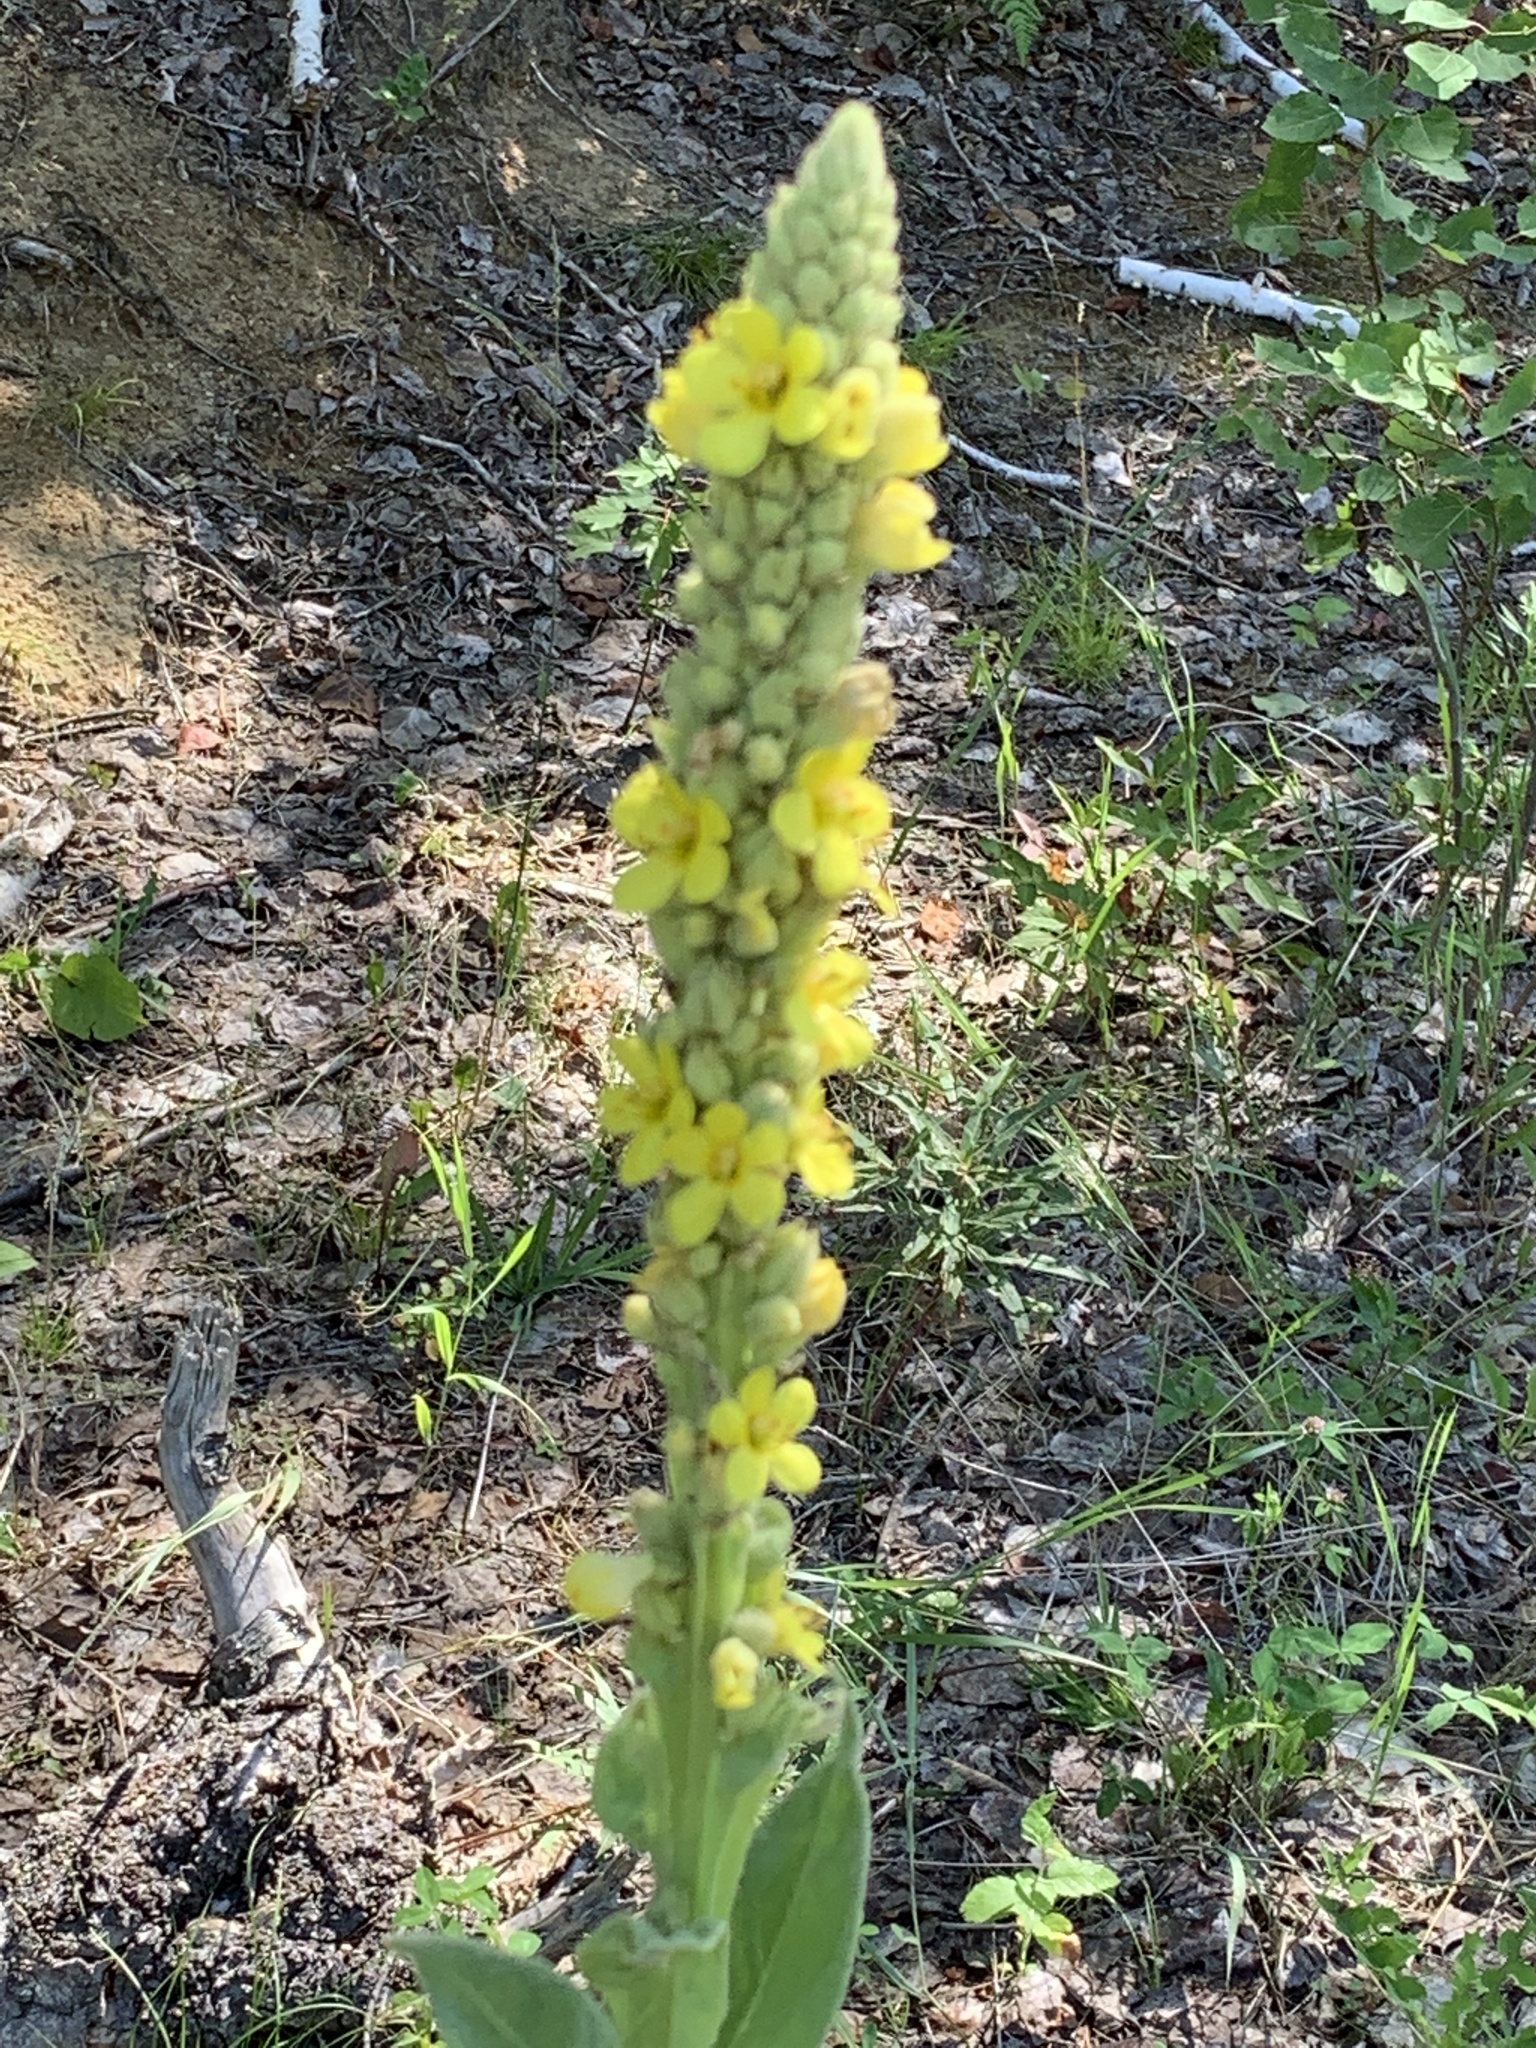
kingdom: Plantae
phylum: Tracheophyta
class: Magnoliopsida
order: Lamiales
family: Scrophulariaceae
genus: Verbascum
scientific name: Verbascum thapsus
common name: Common mullein
